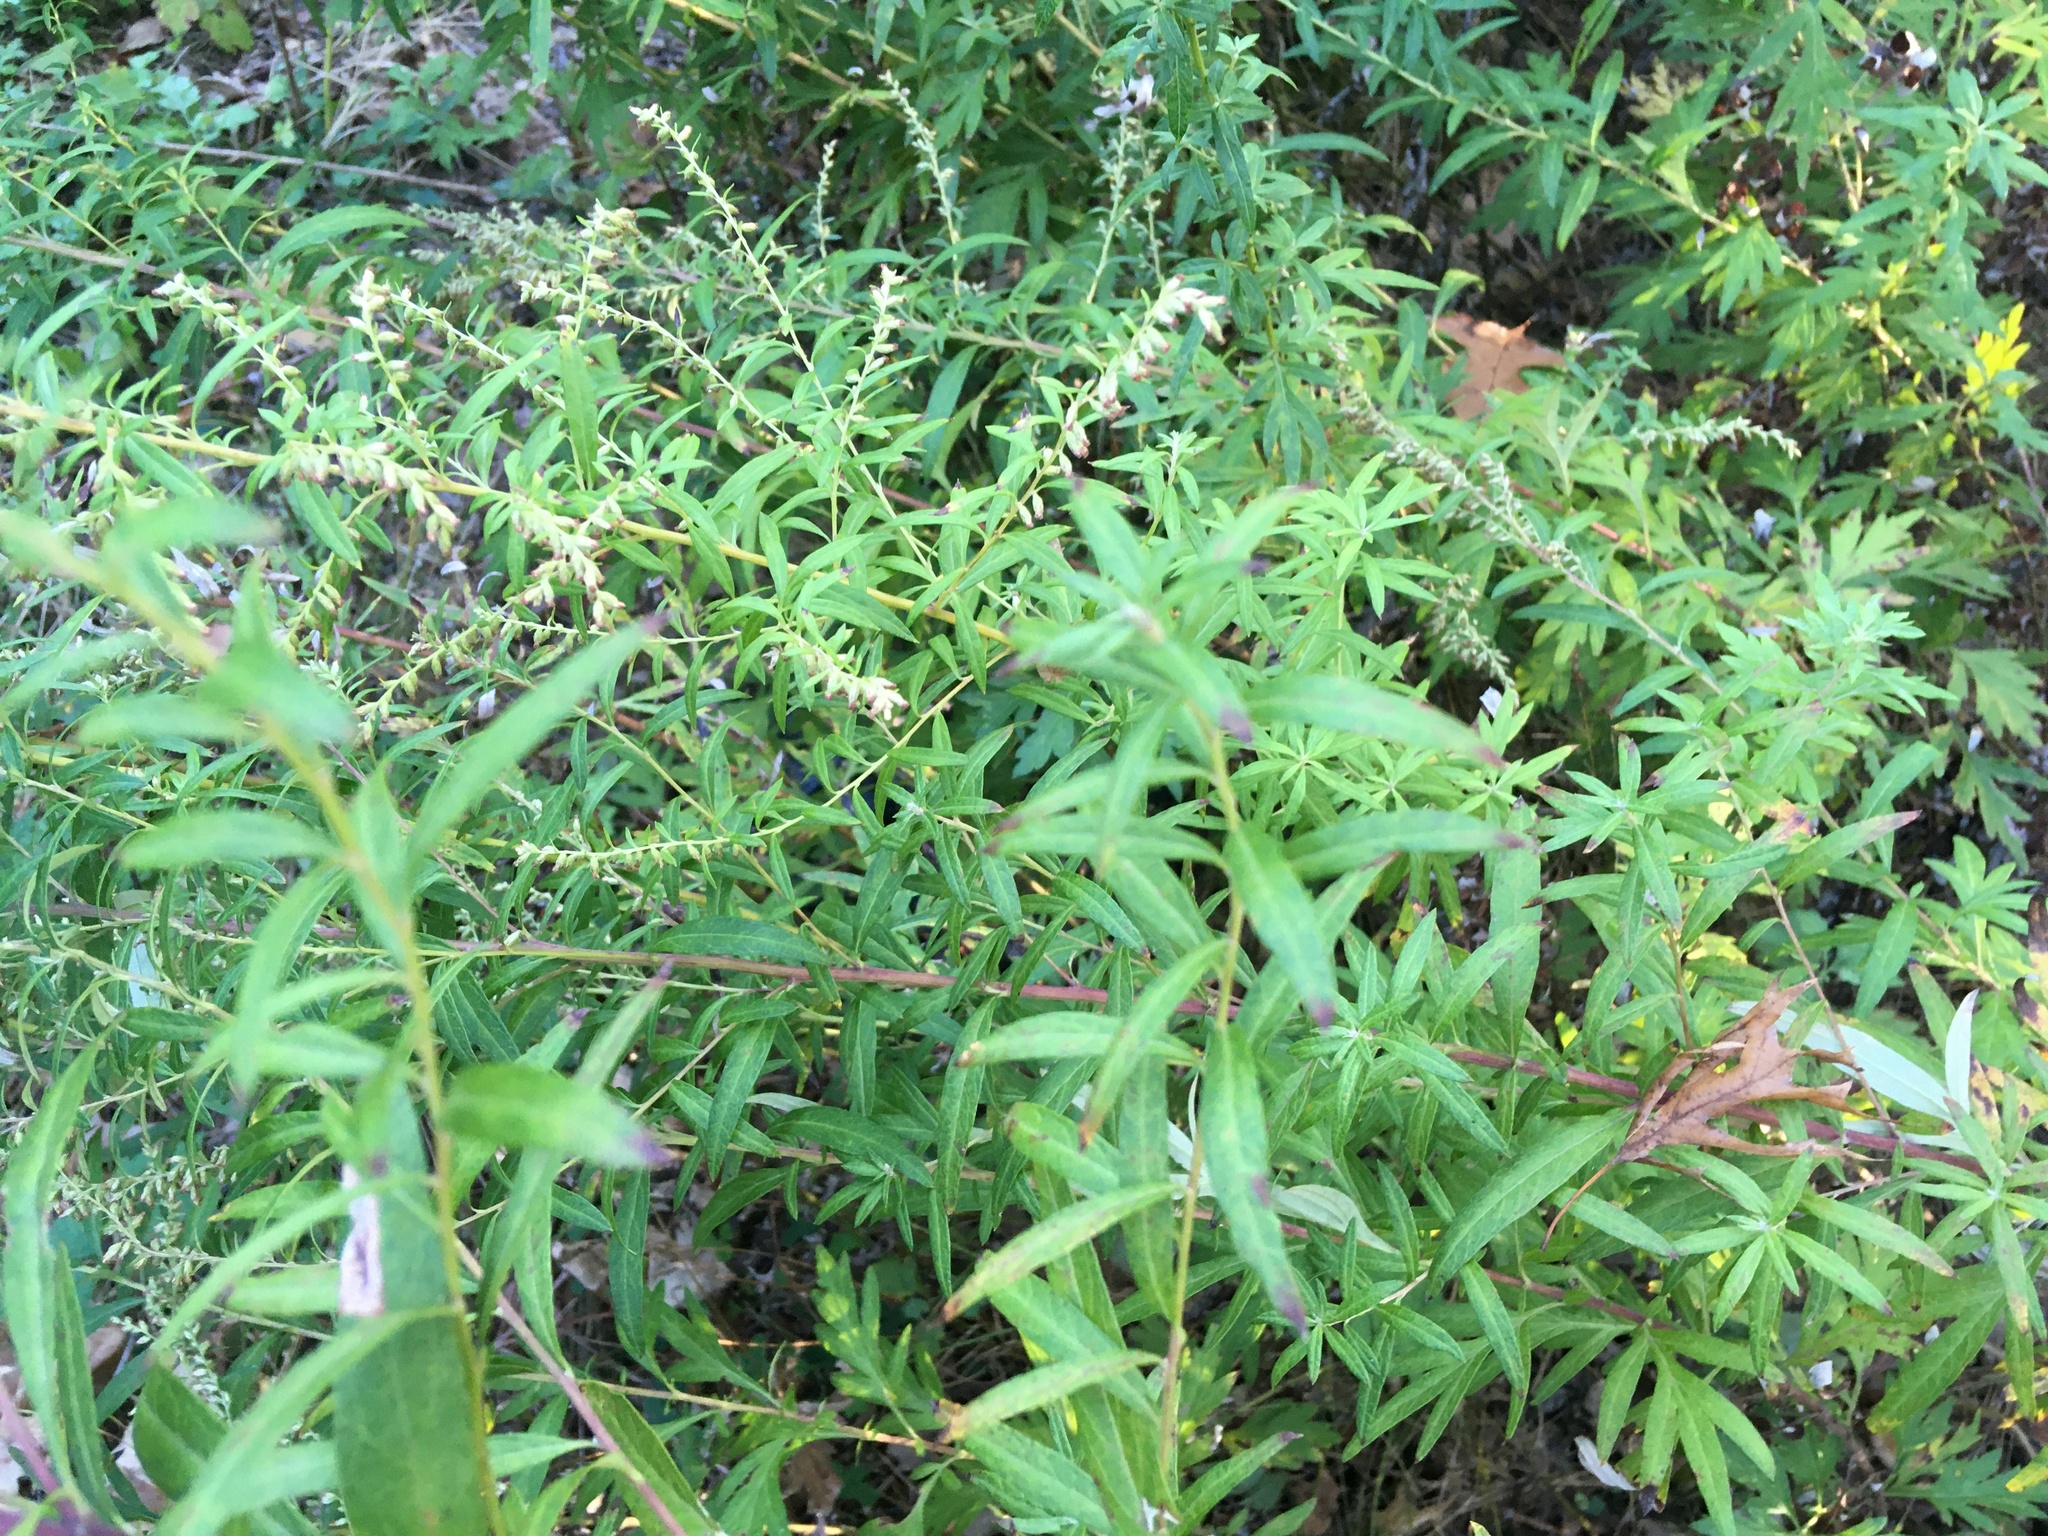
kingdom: Plantae
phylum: Tracheophyta
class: Magnoliopsida
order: Asterales
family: Asteraceae
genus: Artemisia
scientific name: Artemisia vulgaris
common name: Mugwort
